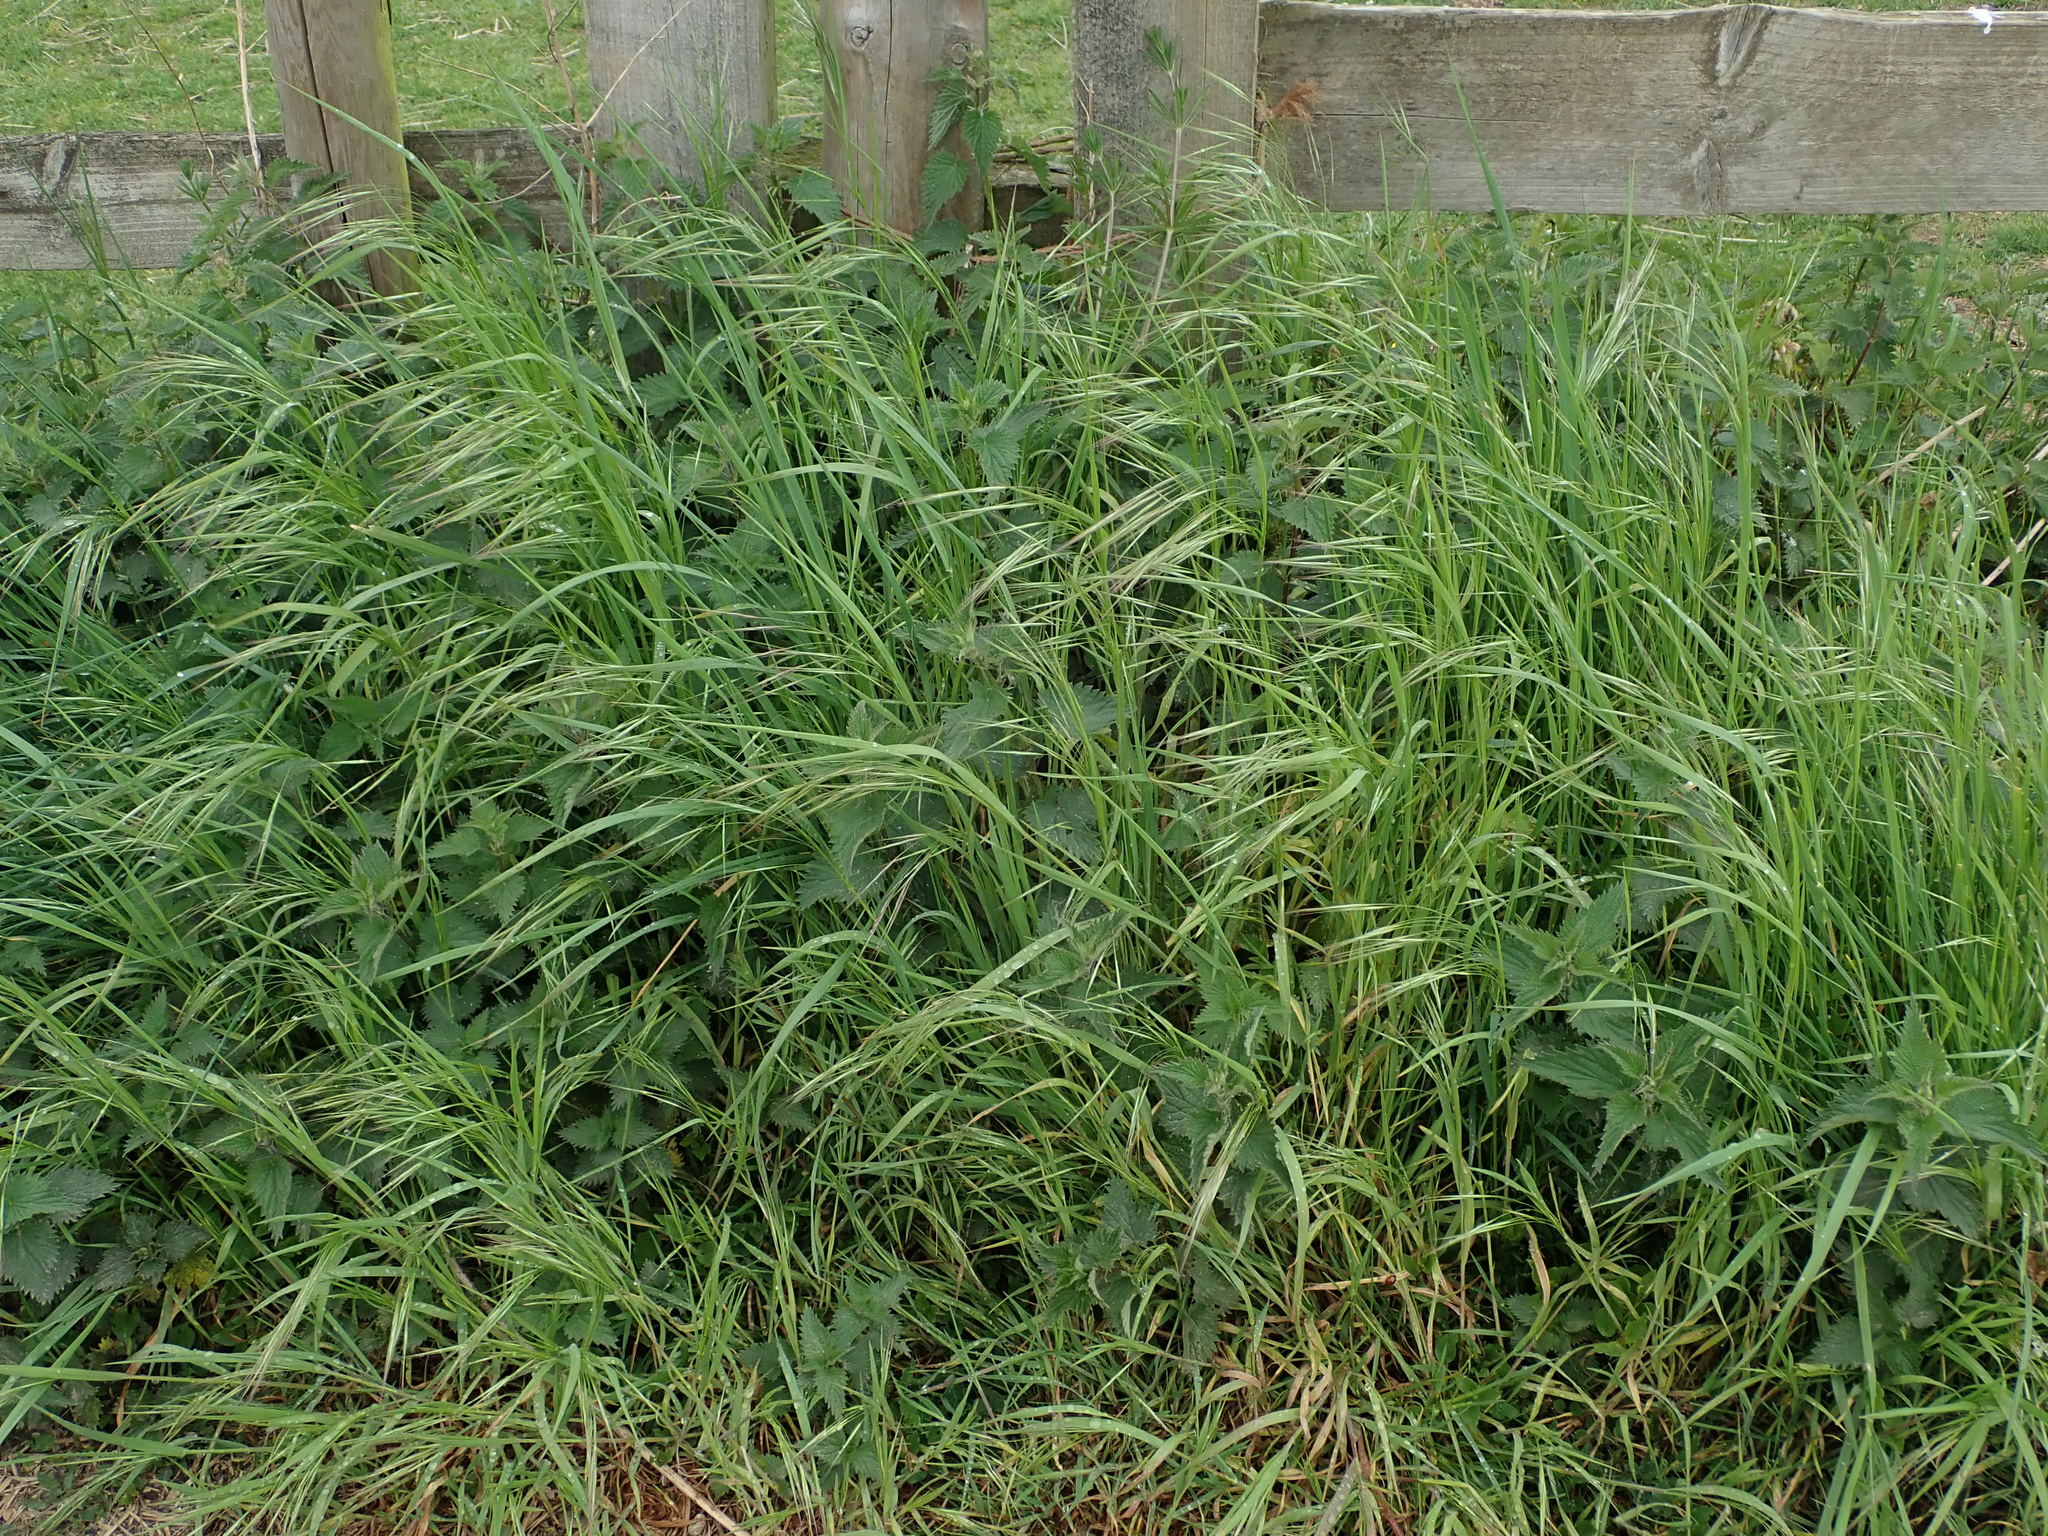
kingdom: Plantae
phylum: Tracheophyta
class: Liliopsida
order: Poales
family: Poaceae
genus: Bromus
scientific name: Bromus sterilis
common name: Poverty brome
